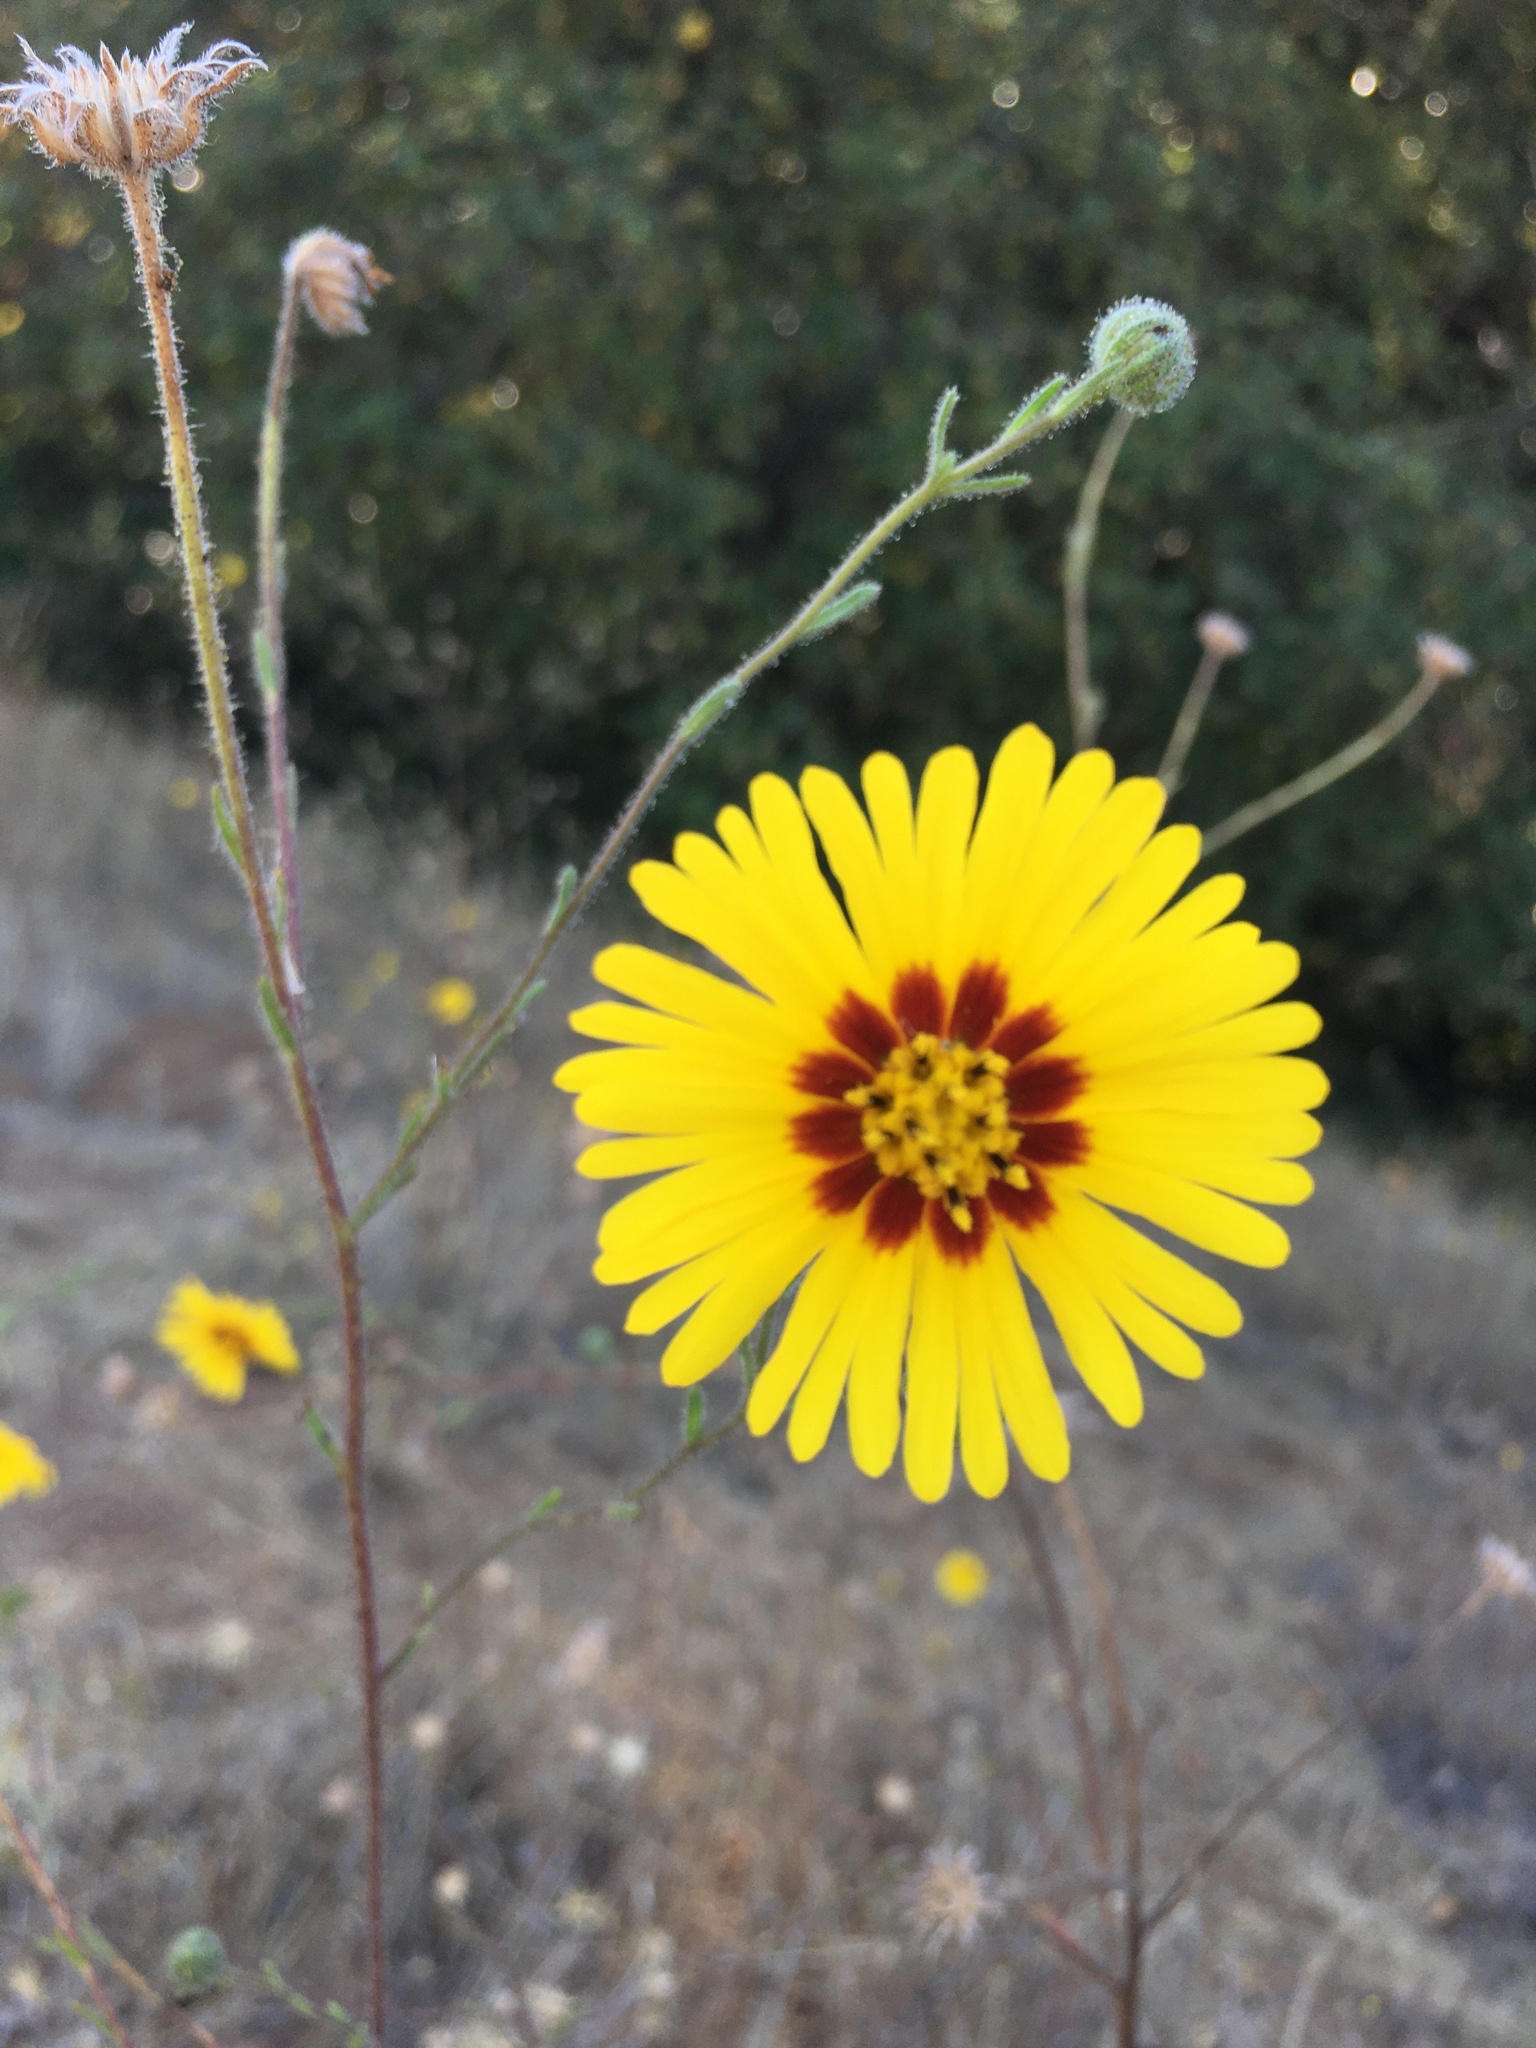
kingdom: Plantae
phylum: Tracheophyta
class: Magnoliopsida
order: Asterales
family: Asteraceae
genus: Madia
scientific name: Madia elegans
